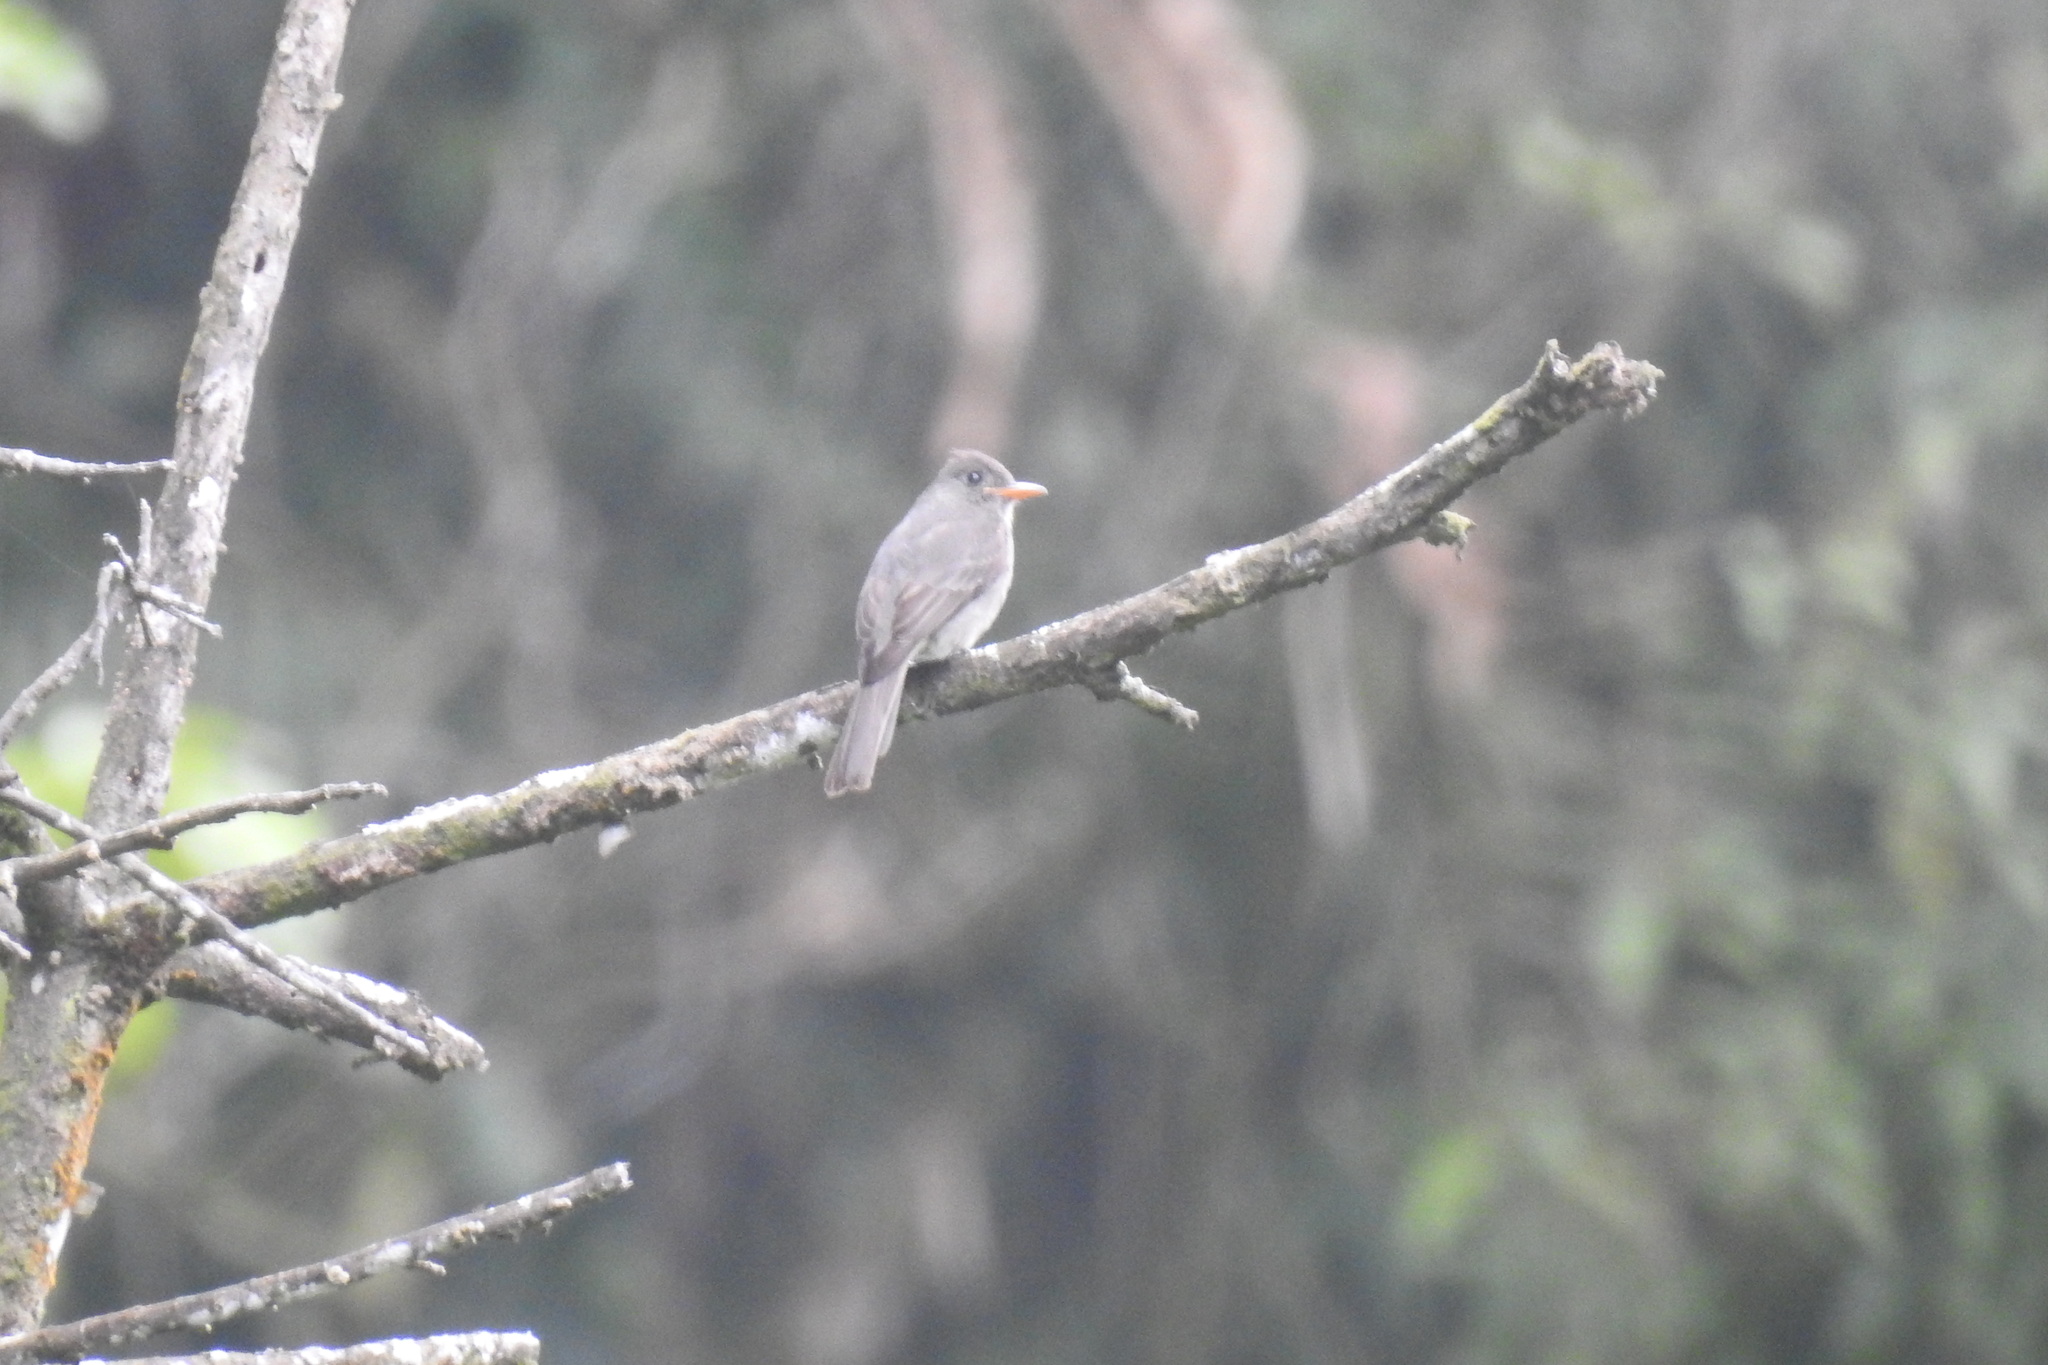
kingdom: Animalia
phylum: Chordata
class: Aves
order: Passeriformes
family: Tyrannidae
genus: Contopus
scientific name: Contopus lugubris
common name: Dark pewee
